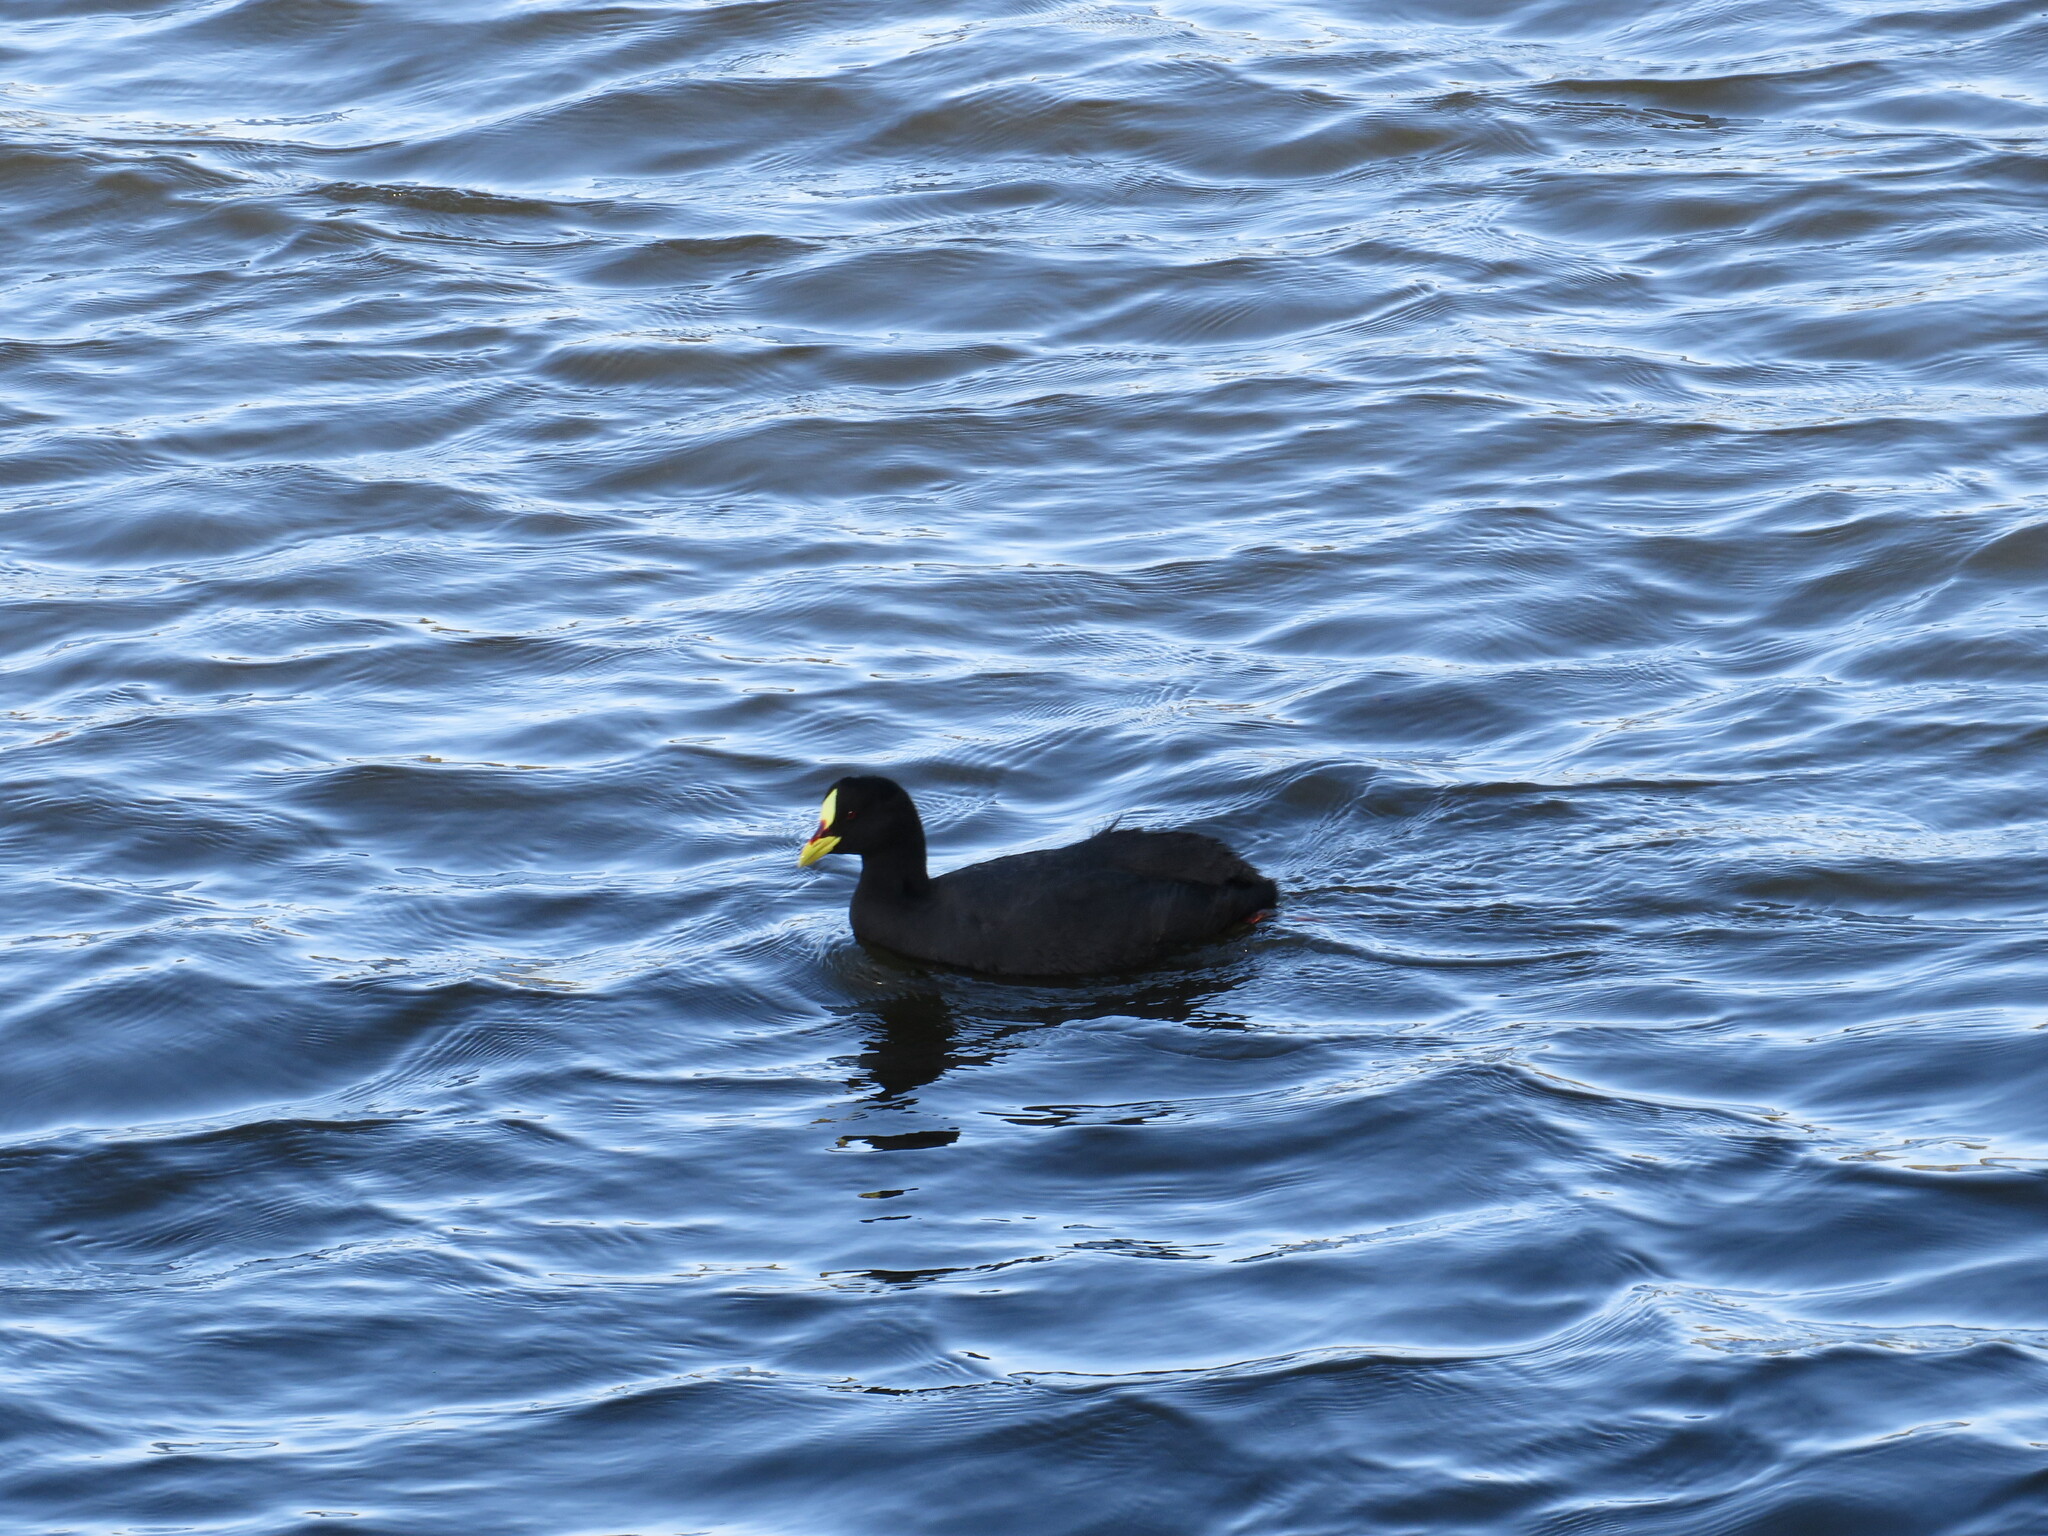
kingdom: Animalia
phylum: Chordata
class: Aves
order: Gruiformes
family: Rallidae
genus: Fulica
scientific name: Fulica armillata
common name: Red-gartered coot
